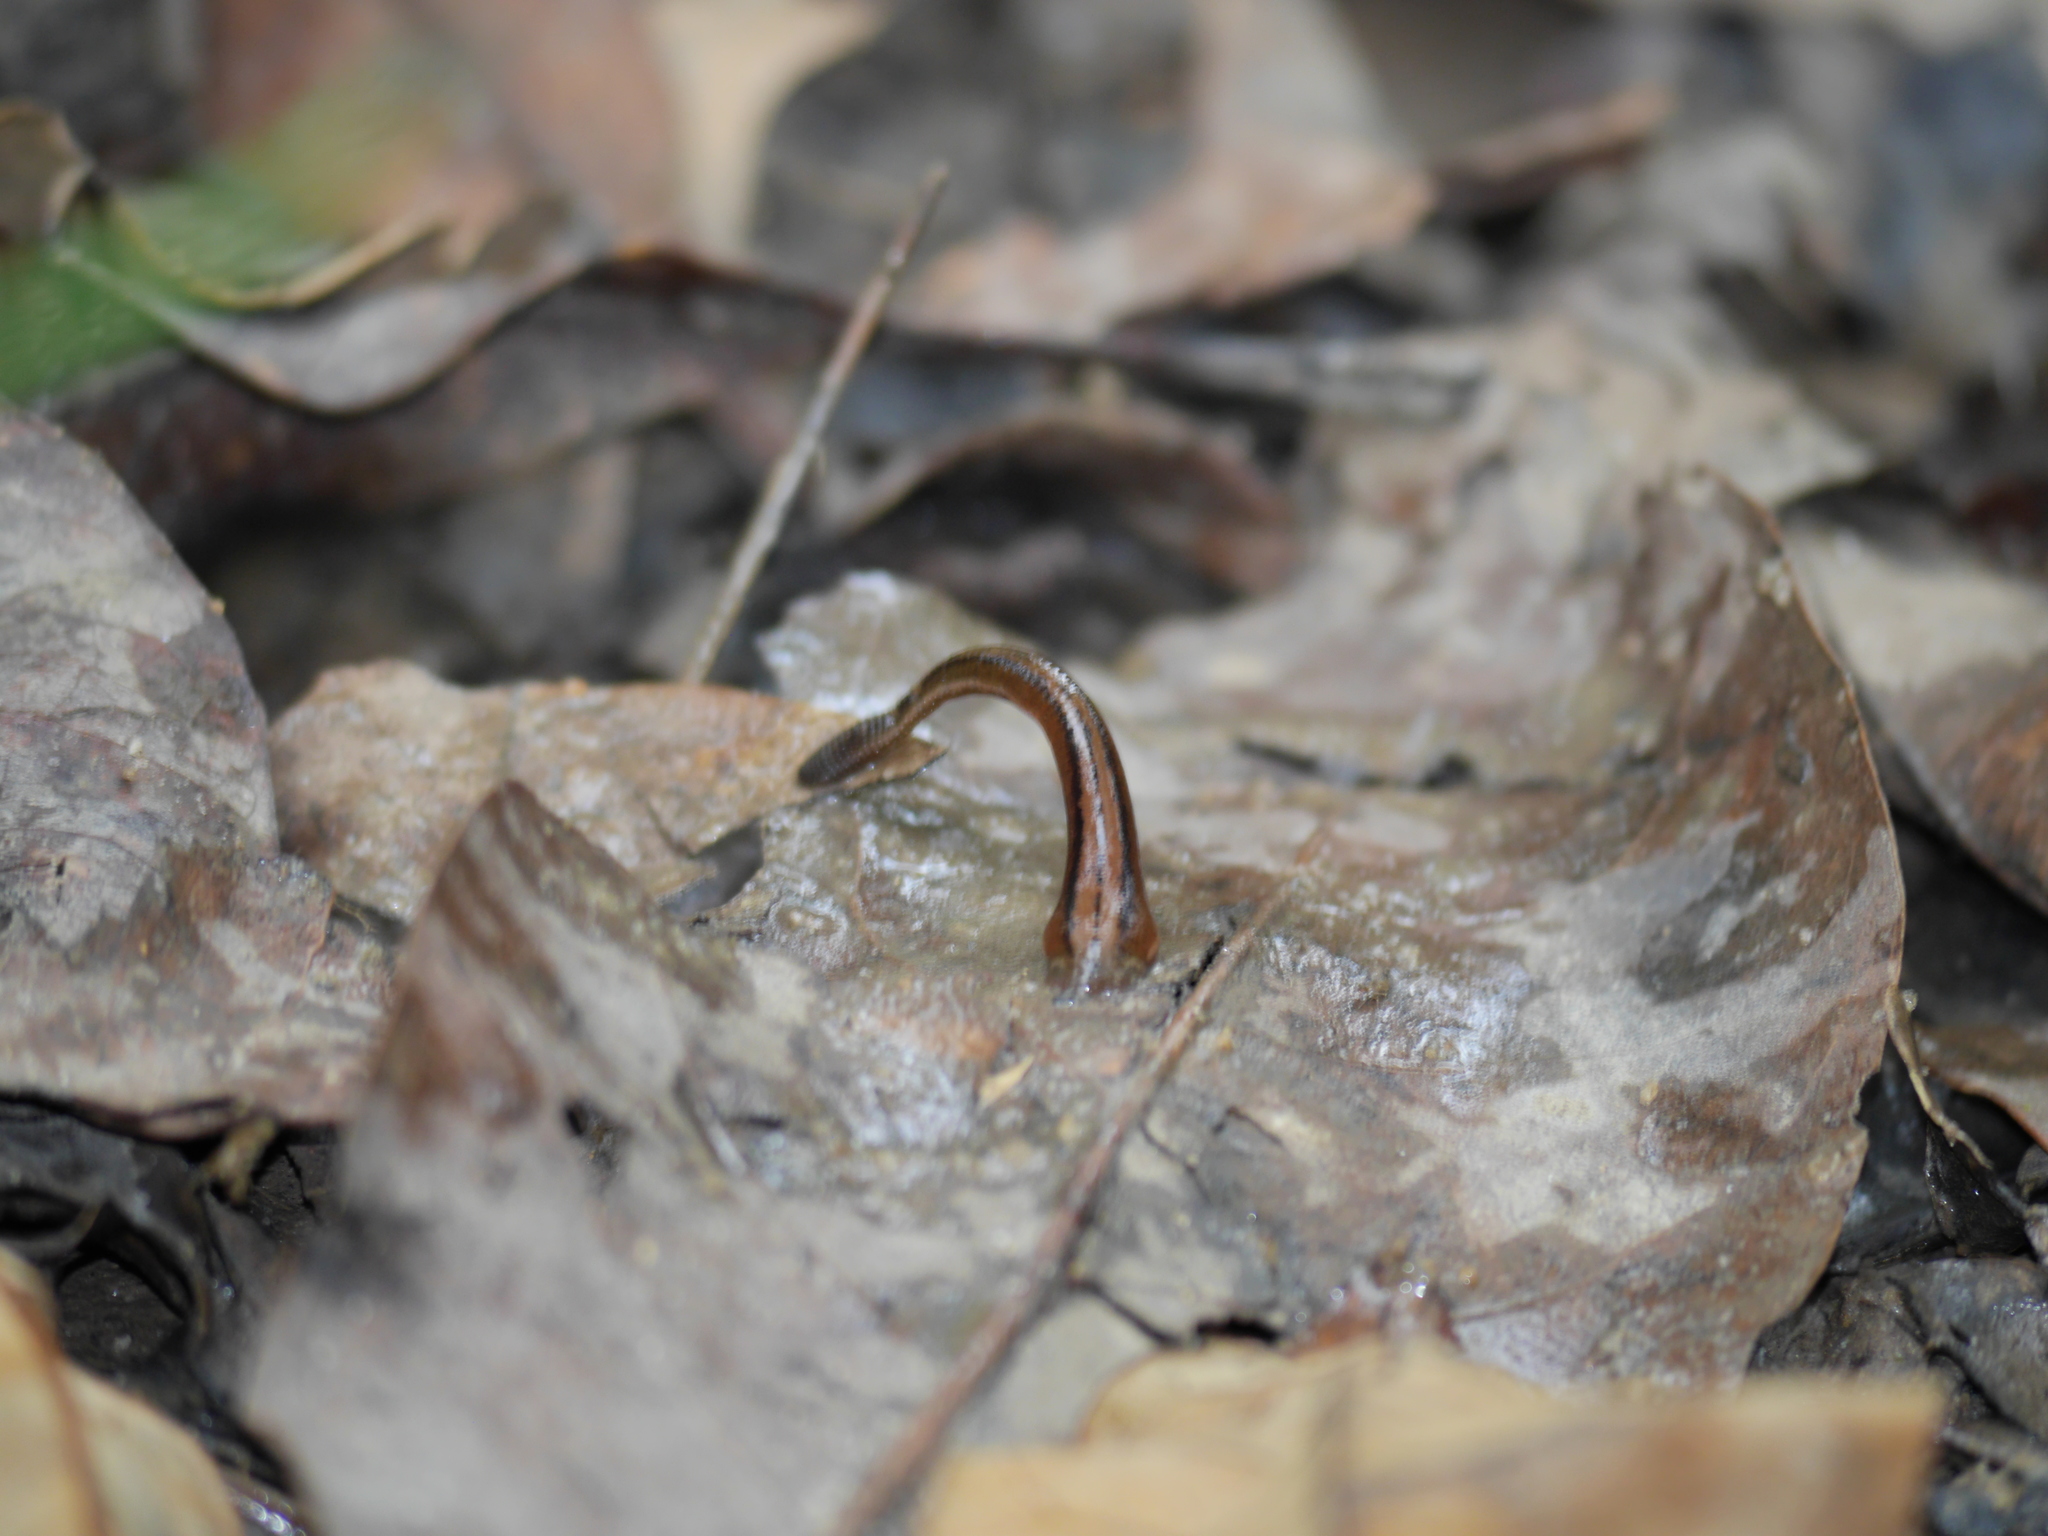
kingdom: Animalia
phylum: Annelida
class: Clitellata
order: Arhynchobdellida
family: Haemadipsidae
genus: Haemadipsa
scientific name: Haemadipsa interrupta
